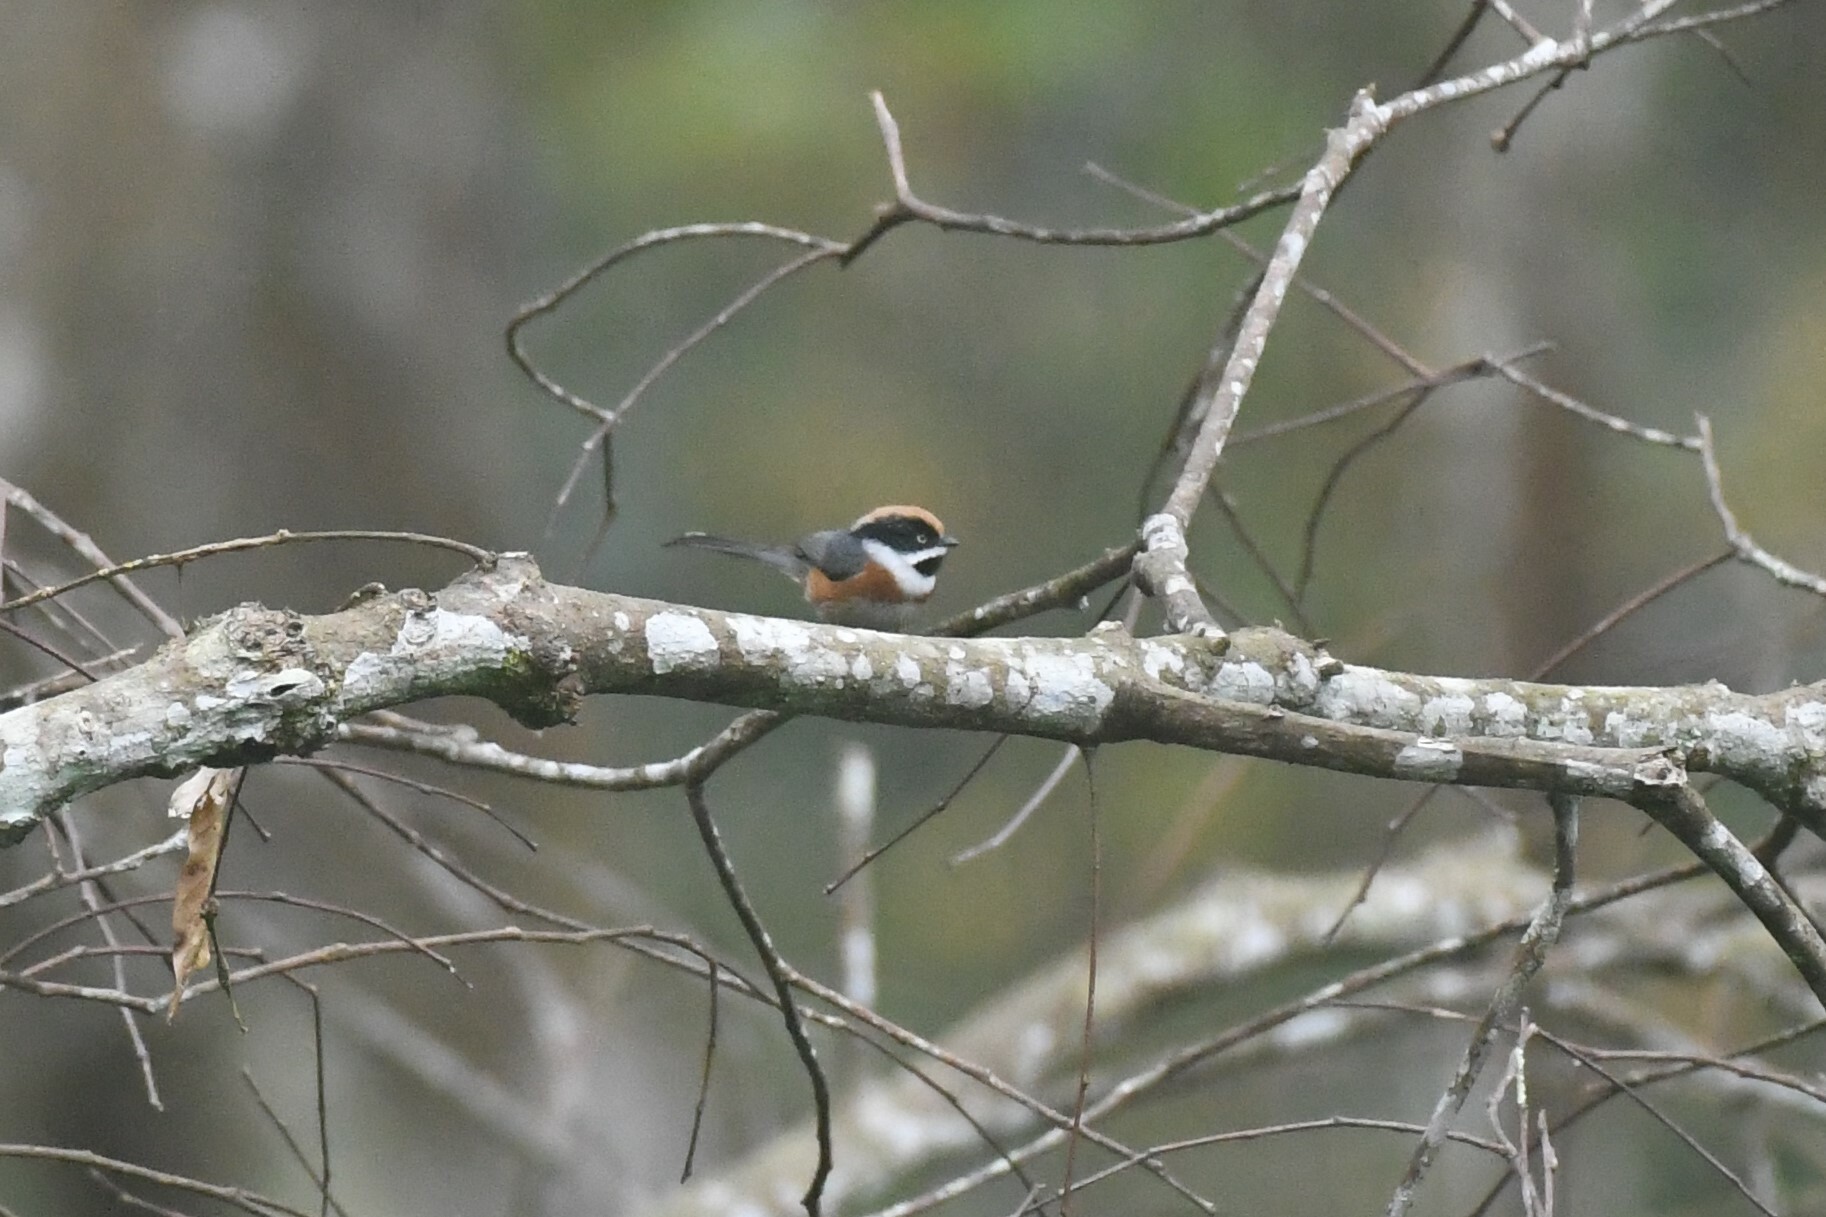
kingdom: Animalia
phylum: Chordata
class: Aves
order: Passeriformes
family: Aegithalidae
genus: Aegithalos
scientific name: Aegithalos concinnus
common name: Black-throated bushtit
